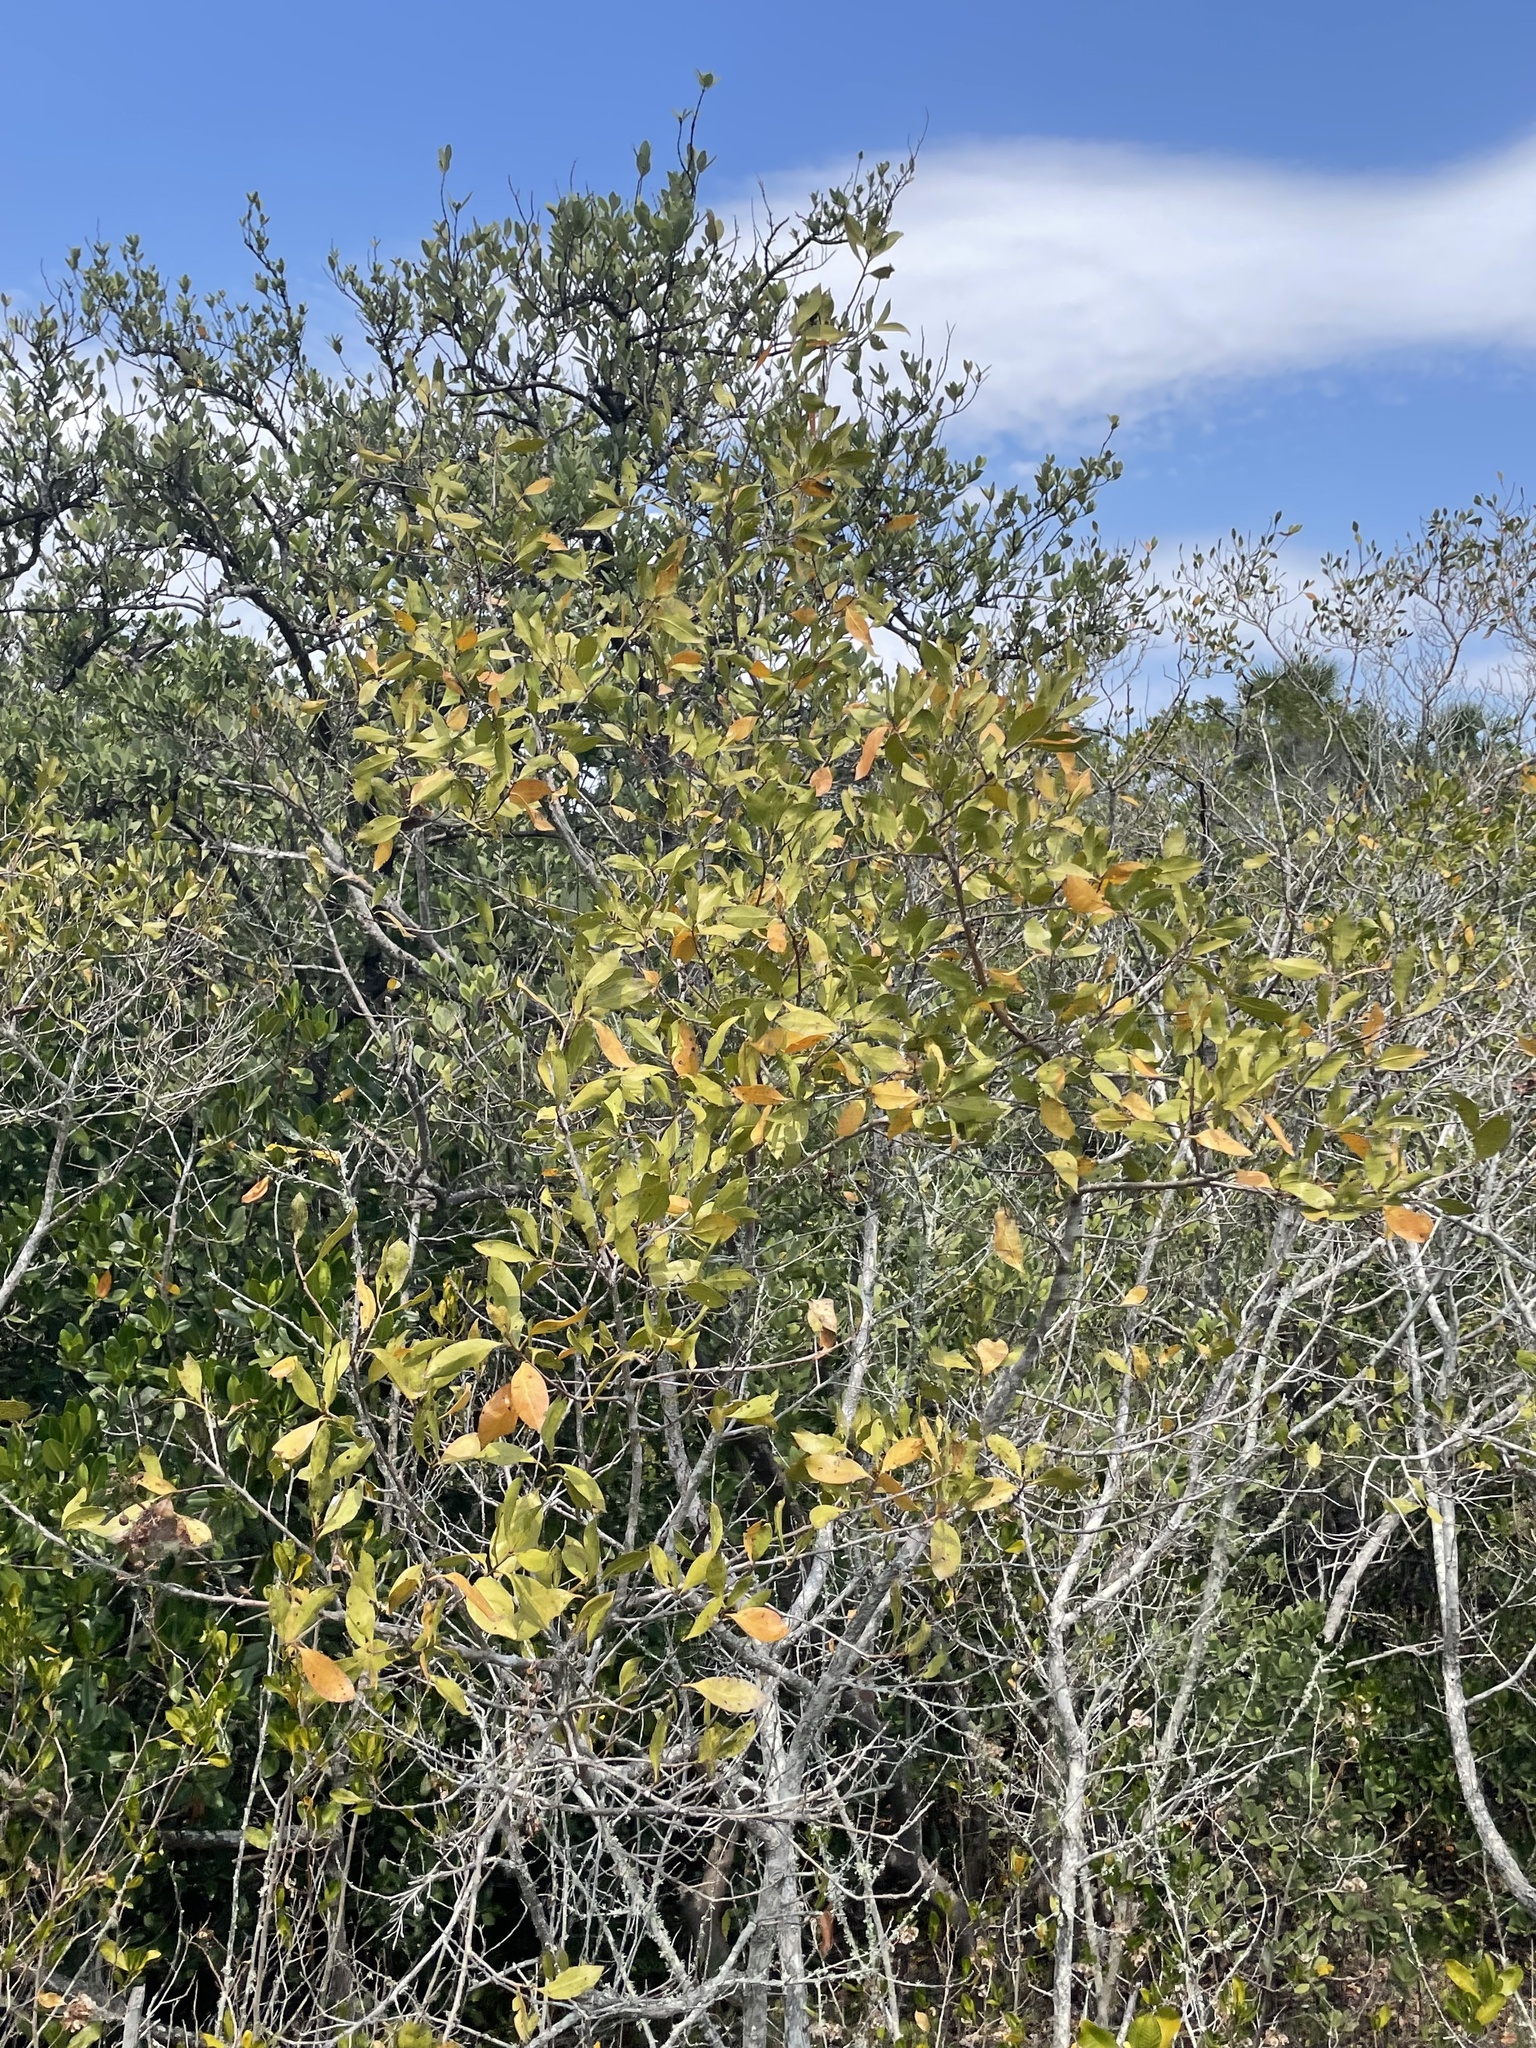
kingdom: Plantae
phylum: Tracheophyta
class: Magnoliopsida
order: Myrtales
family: Combretaceae
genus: Conocarpus
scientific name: Conocarpus erectus
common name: Button mangrove
